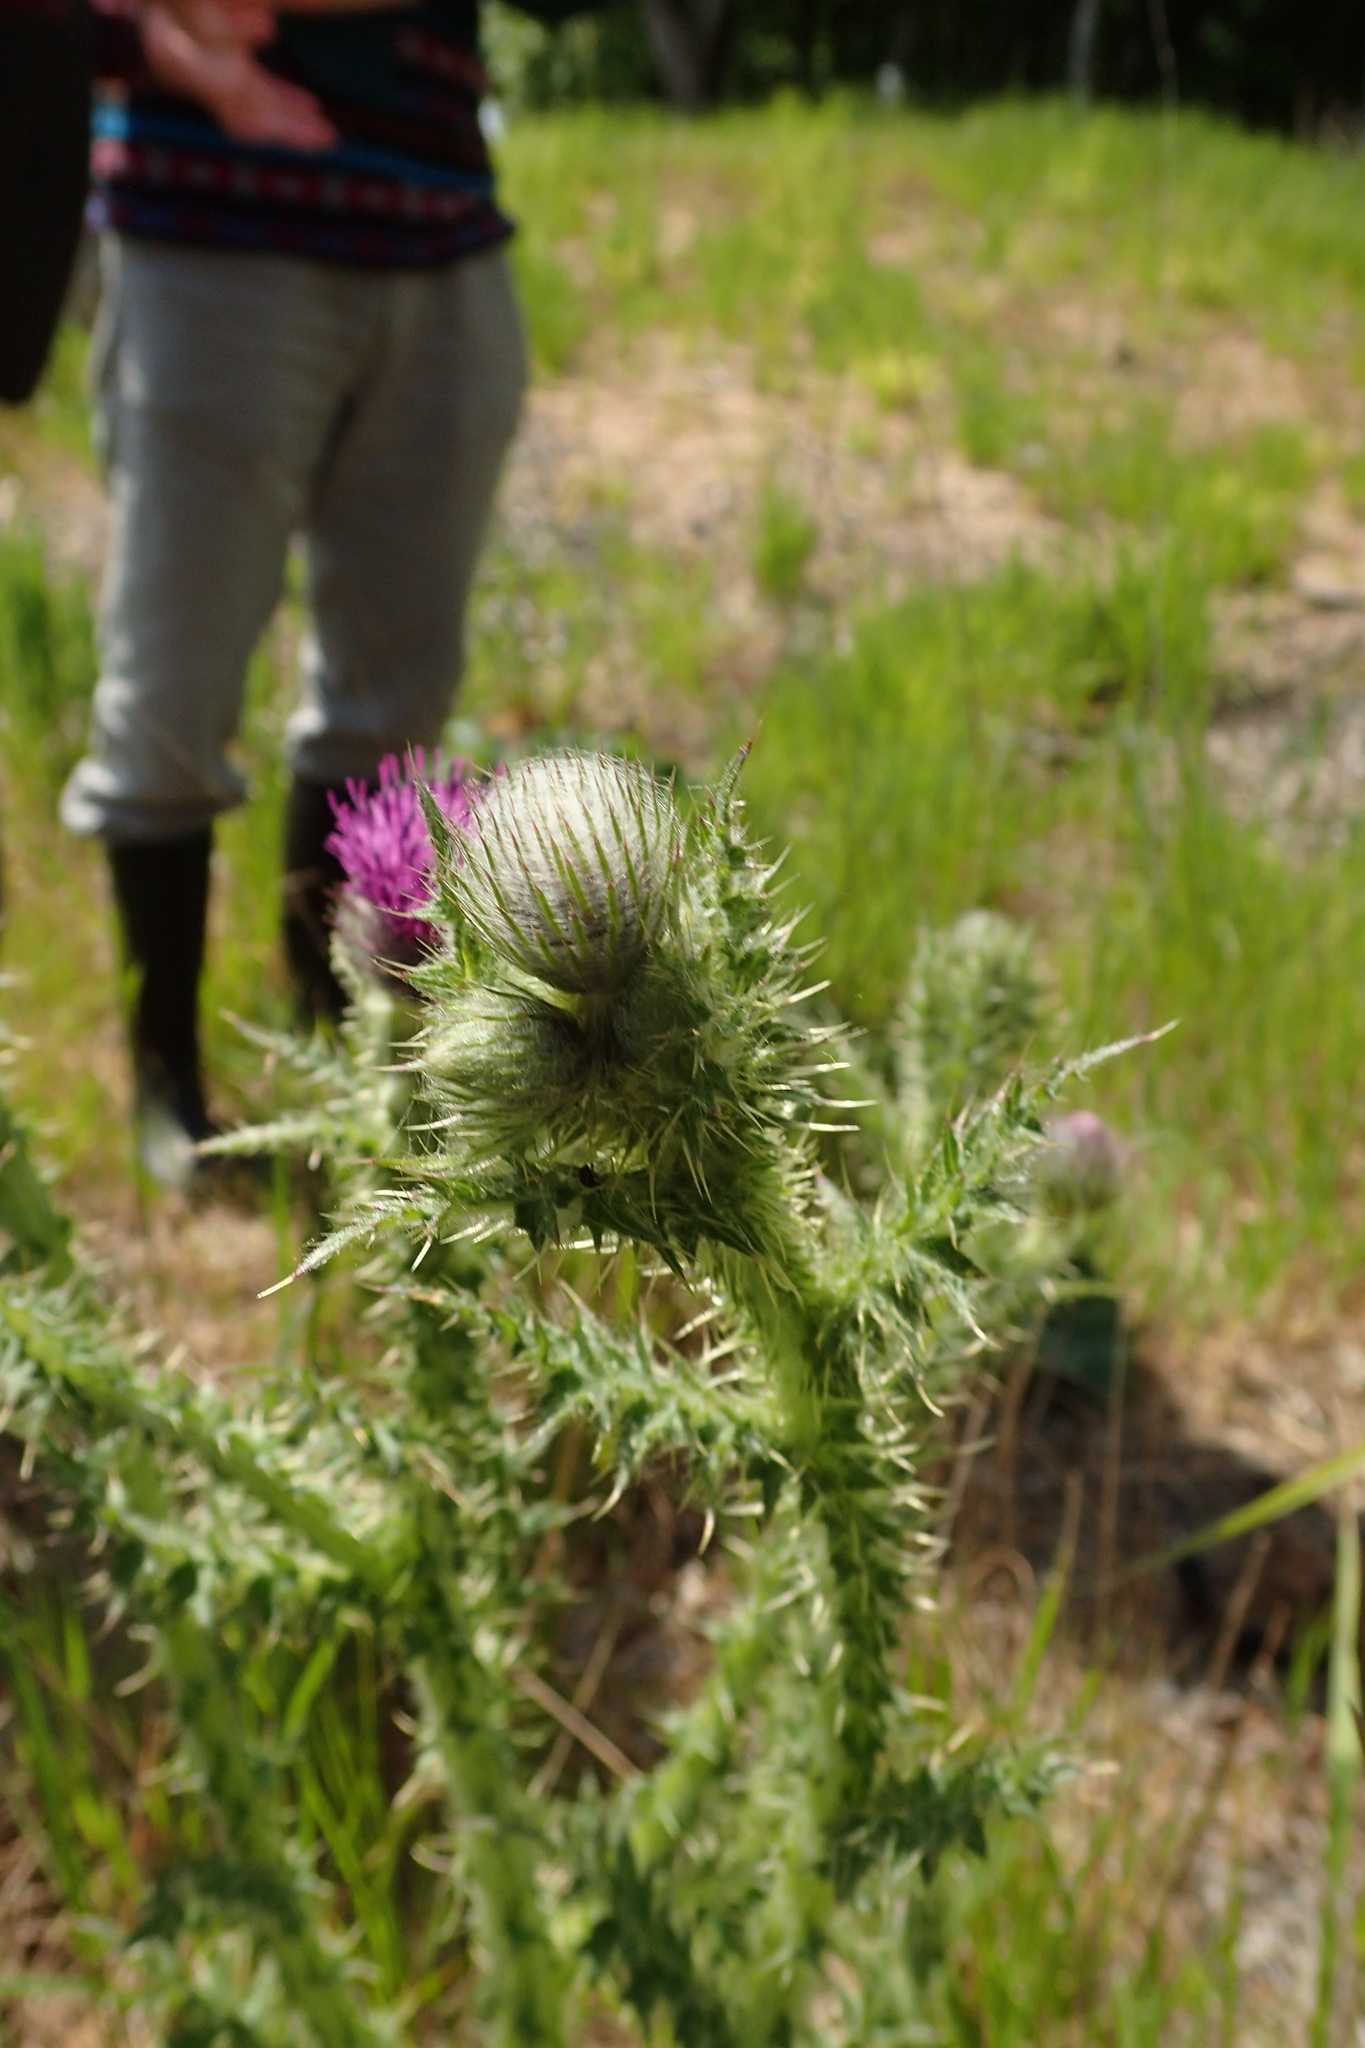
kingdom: Plantae
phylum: Tracheophyta
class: Magnoliopsida
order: Asterales
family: Asteraceae
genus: Carduus
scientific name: Carduus crispus
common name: Welted thistle
